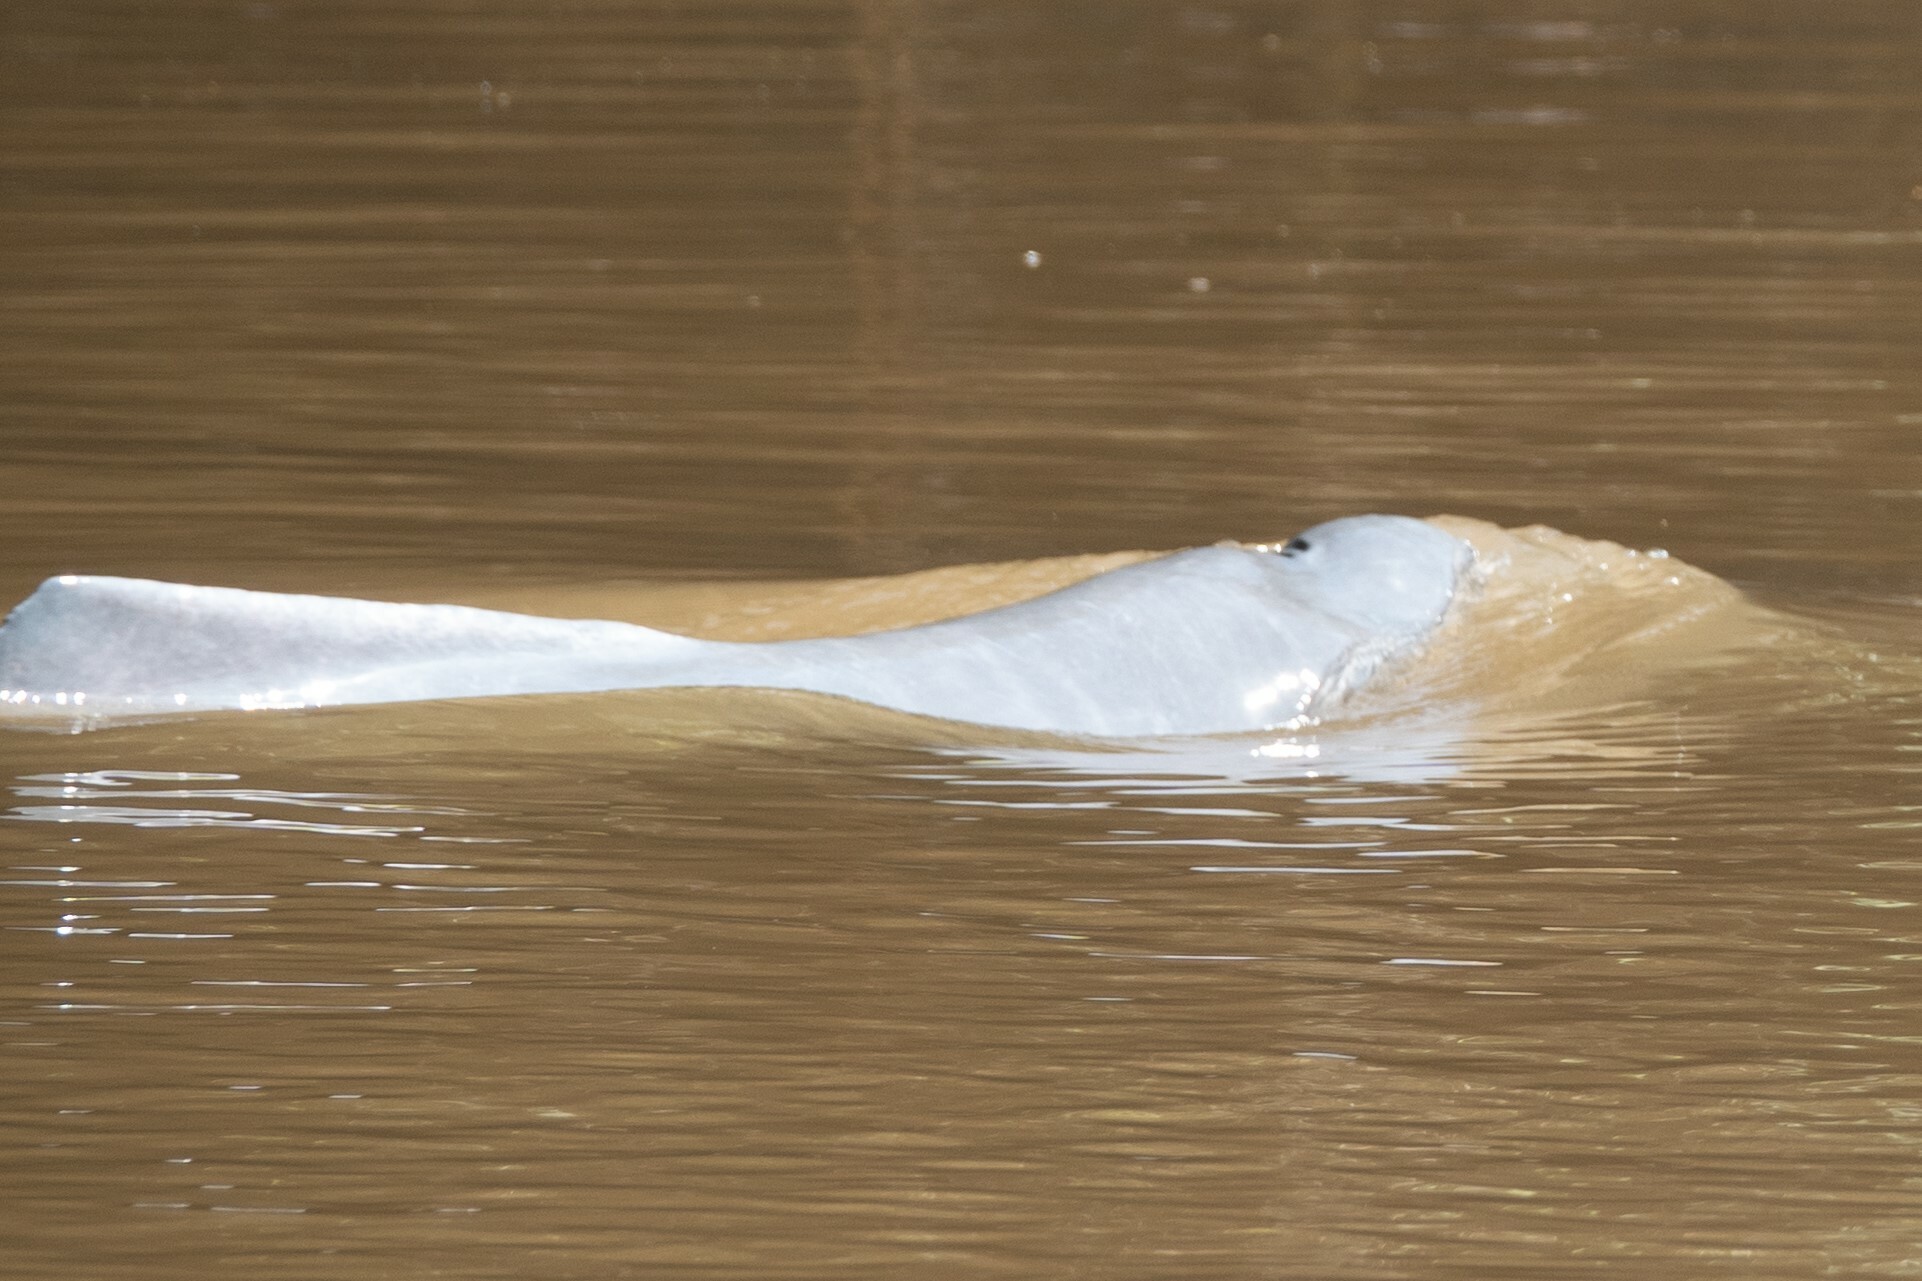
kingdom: Animalia
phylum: Chordata
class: Mammalia
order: Cetacea
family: Iniidae
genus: Inia
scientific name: Inia geoffrensis
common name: Amazon river dolphin
